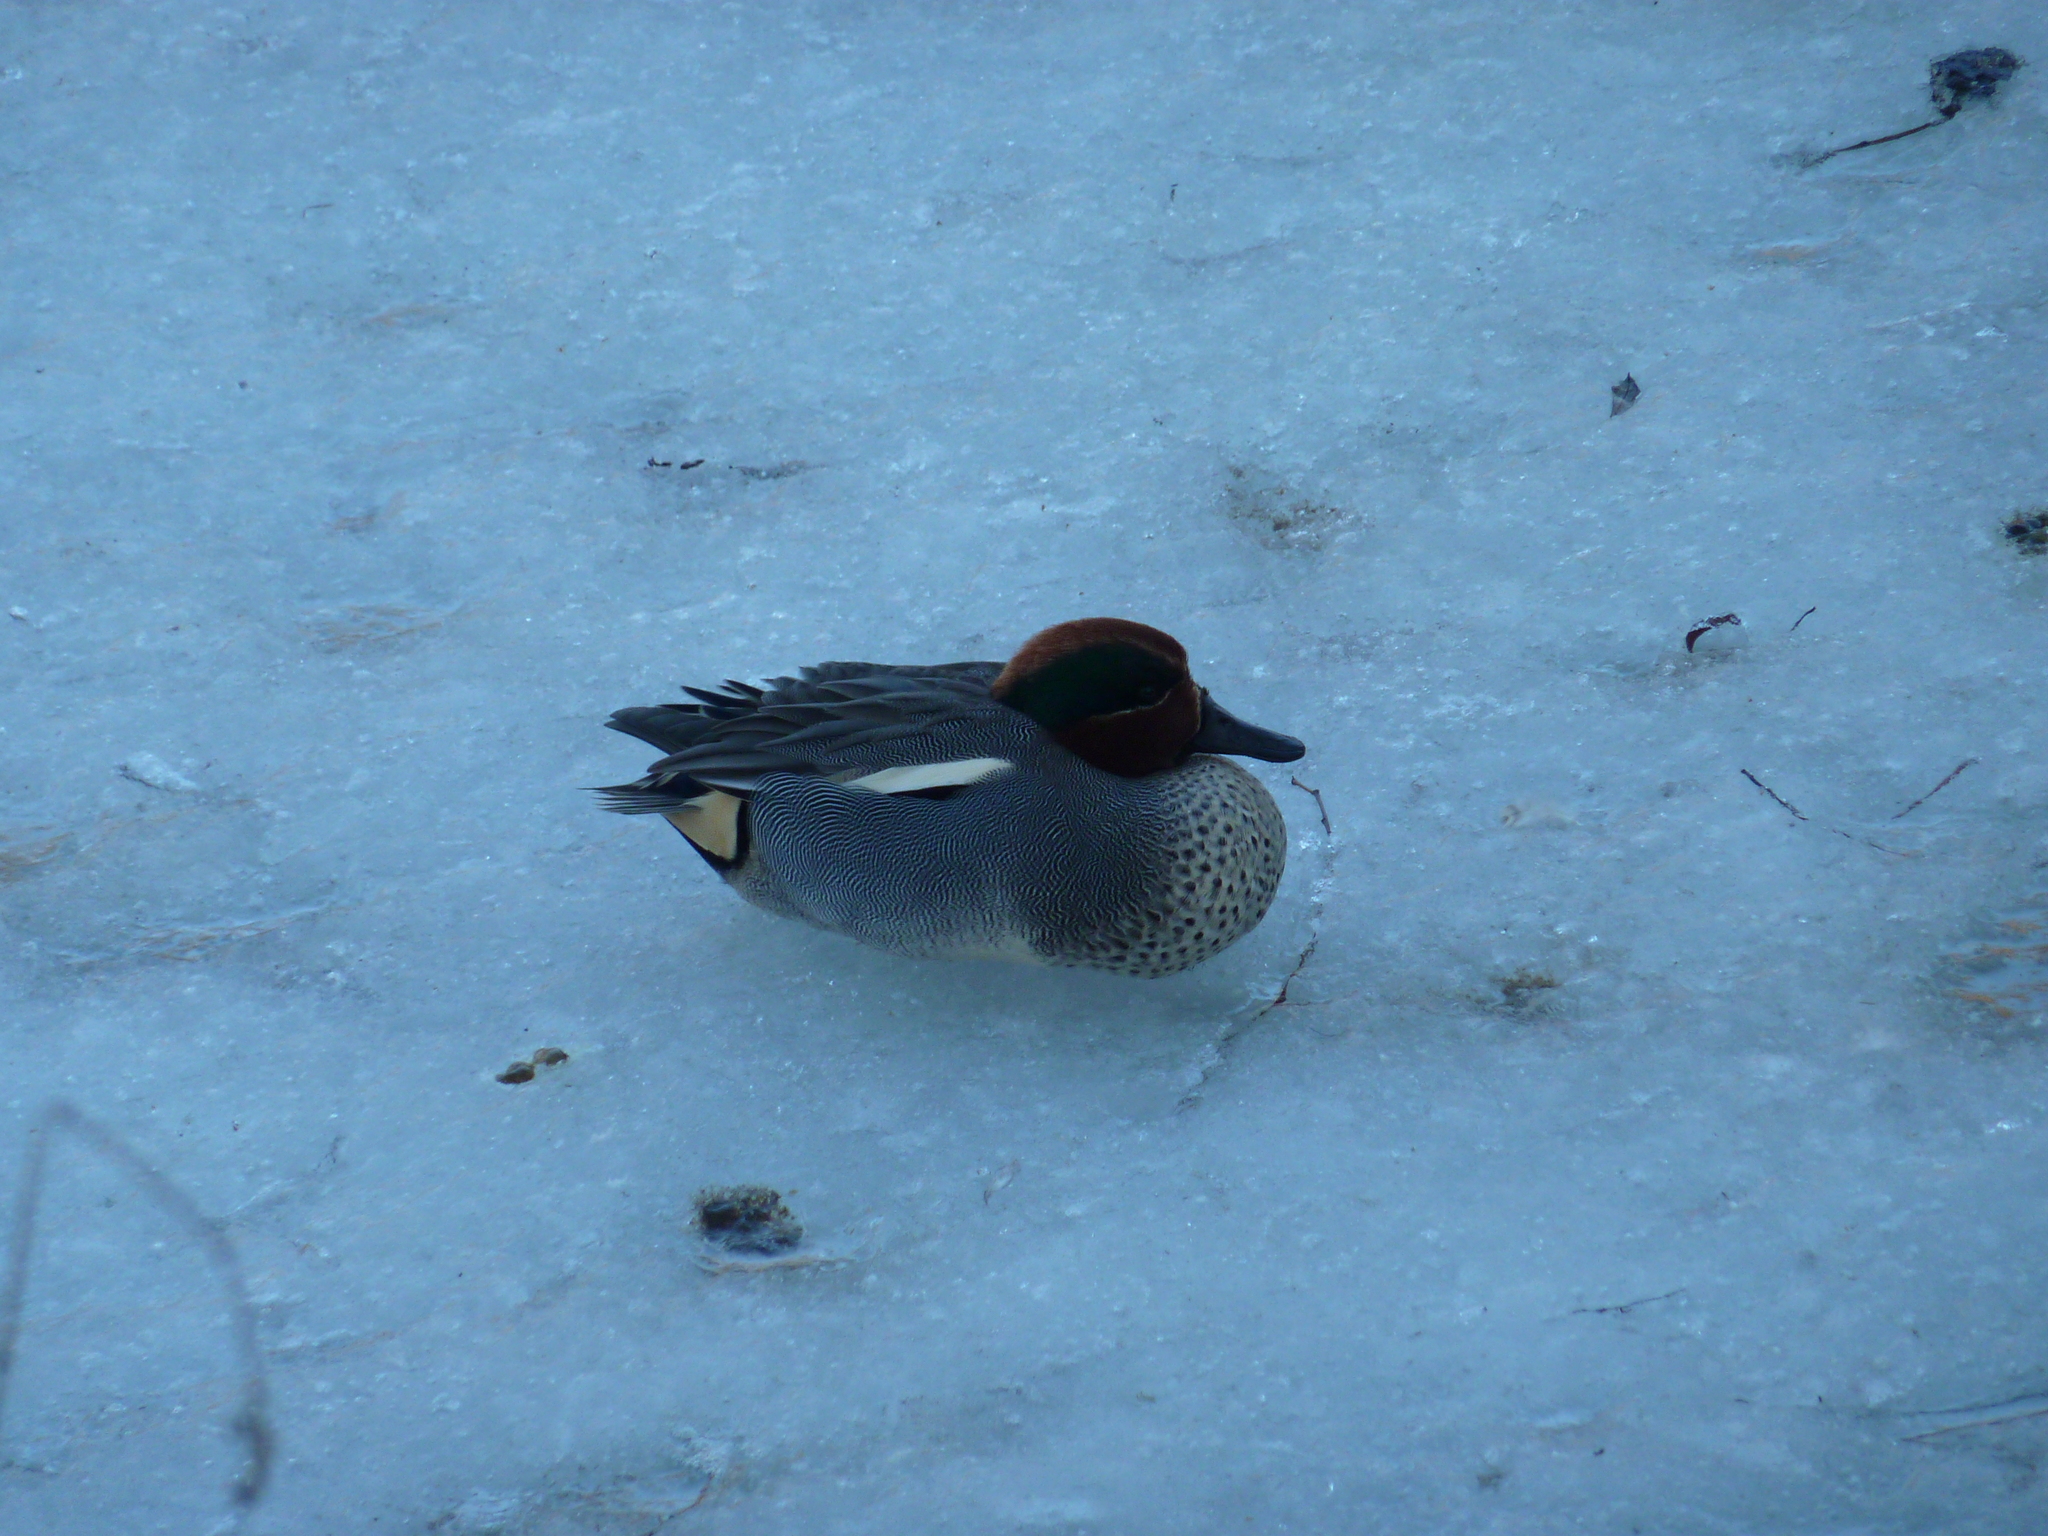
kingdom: Animalia
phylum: Chordata
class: Aves
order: Anseriformes
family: Anatidae
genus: Anas
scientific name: Anas crecca
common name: Eurasian teal
